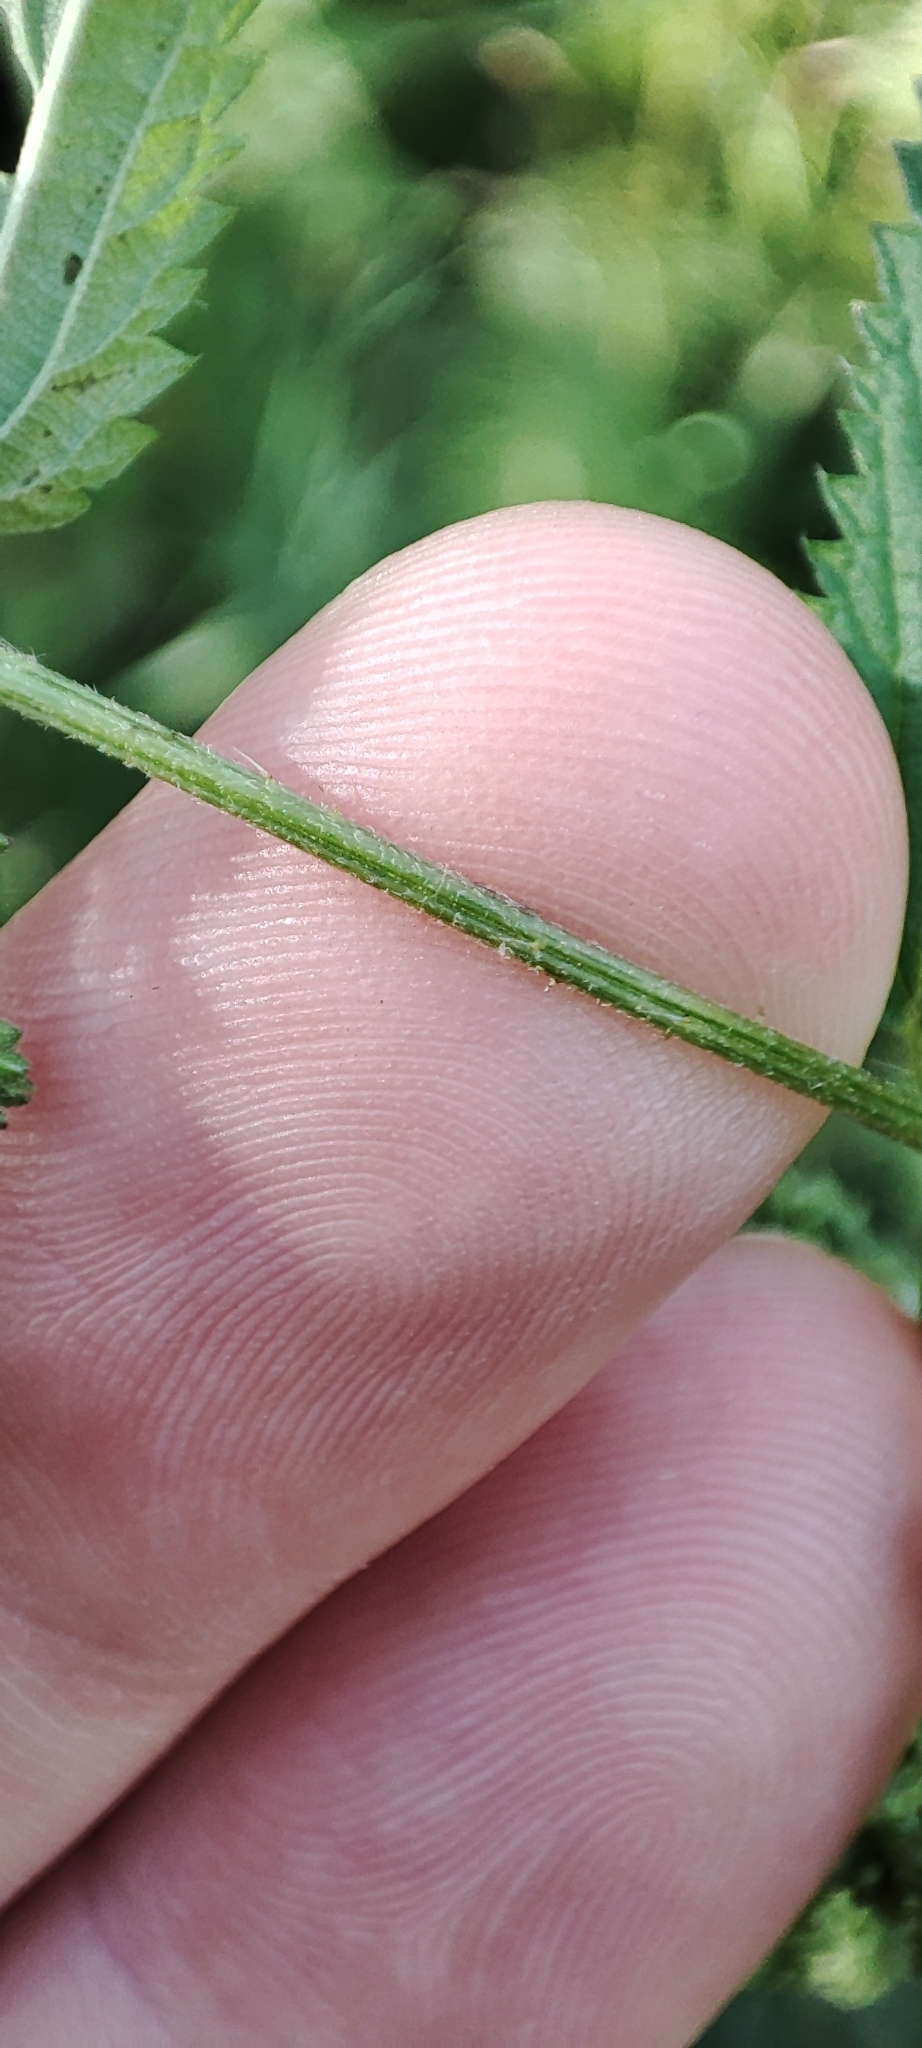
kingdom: Plantae
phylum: Tracheophyta
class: Magnoliopsida
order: Rosales
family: Urticaceae
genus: Urtica
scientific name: Urtica dioica
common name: Common nettle
